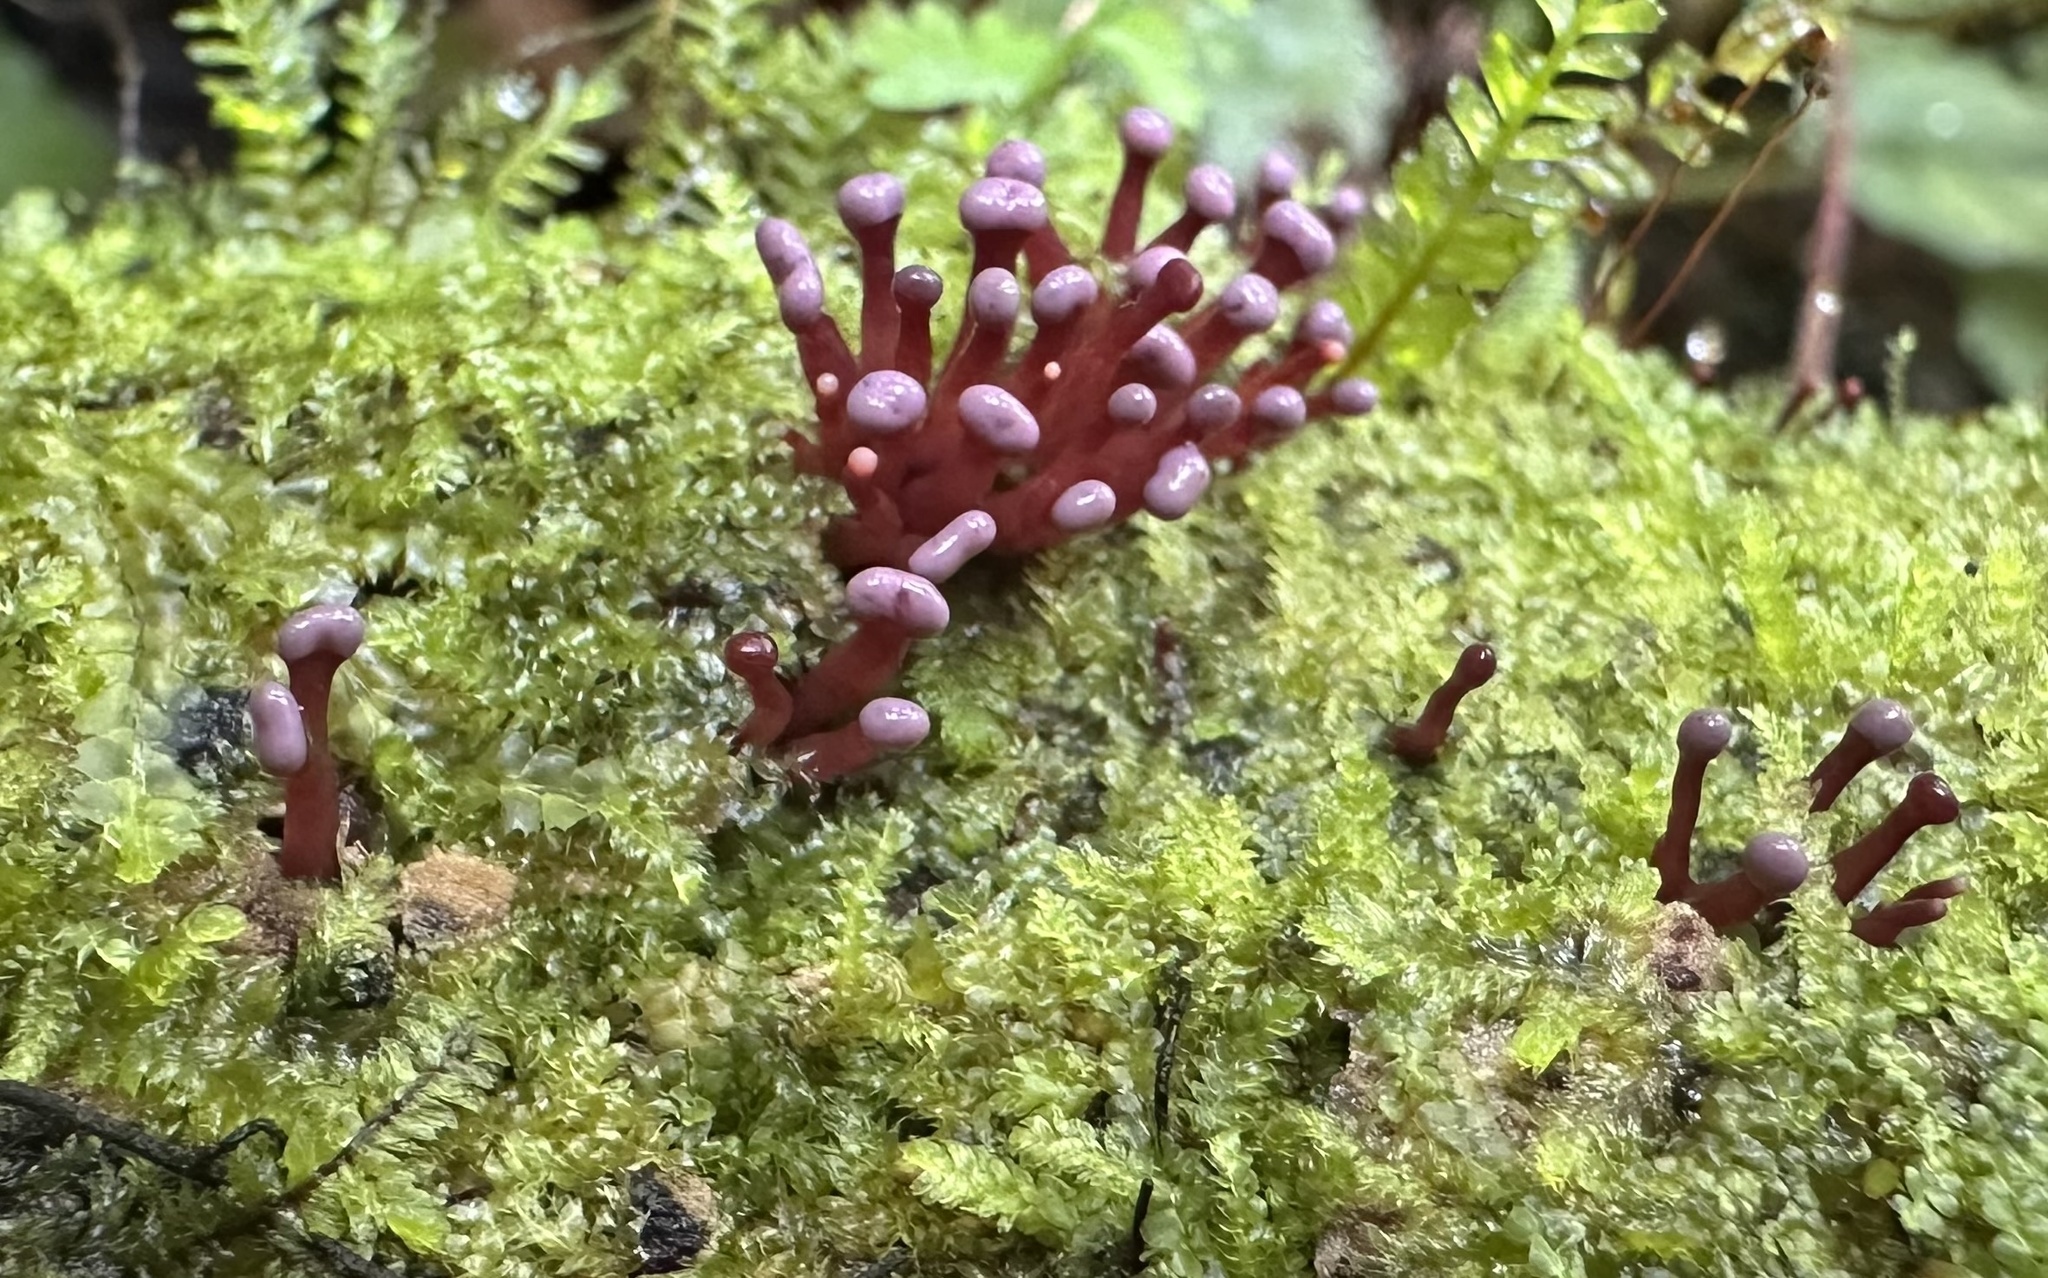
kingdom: Fungi
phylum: Ascomycota
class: Leotiomycetes
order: Helotiales
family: Gelatinodiscaceae
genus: Ascocoryne
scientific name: Ascocoryne trichophora
